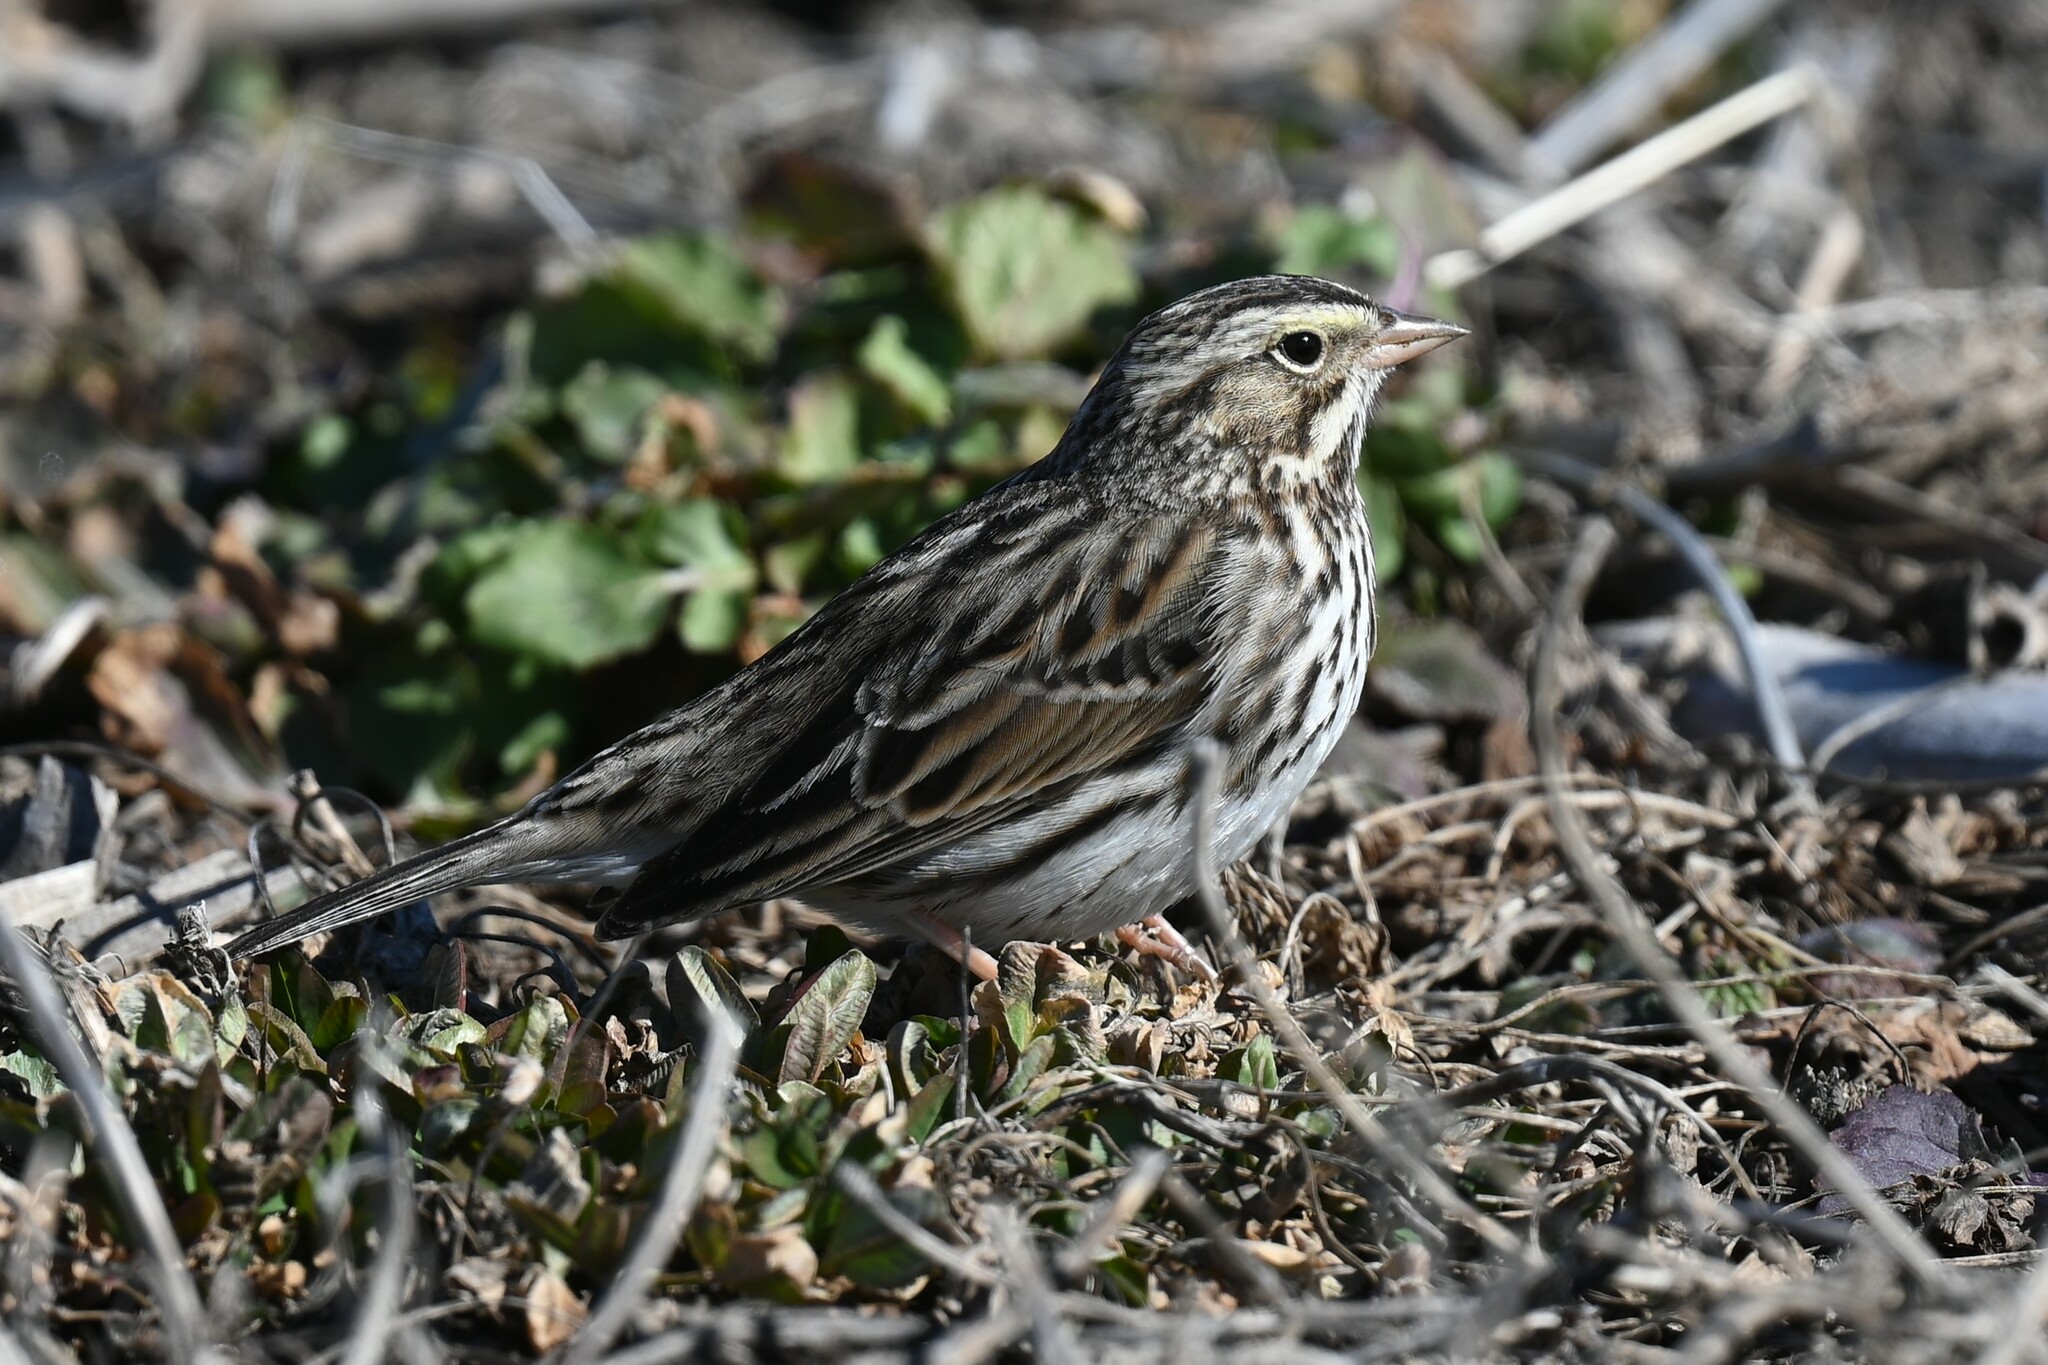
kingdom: Animalia
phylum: Chordata
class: Aves
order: Passeriformes
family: Passerellidae
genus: Passerculus
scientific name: Passerculus sandwichensis
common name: Savannah sparrow
